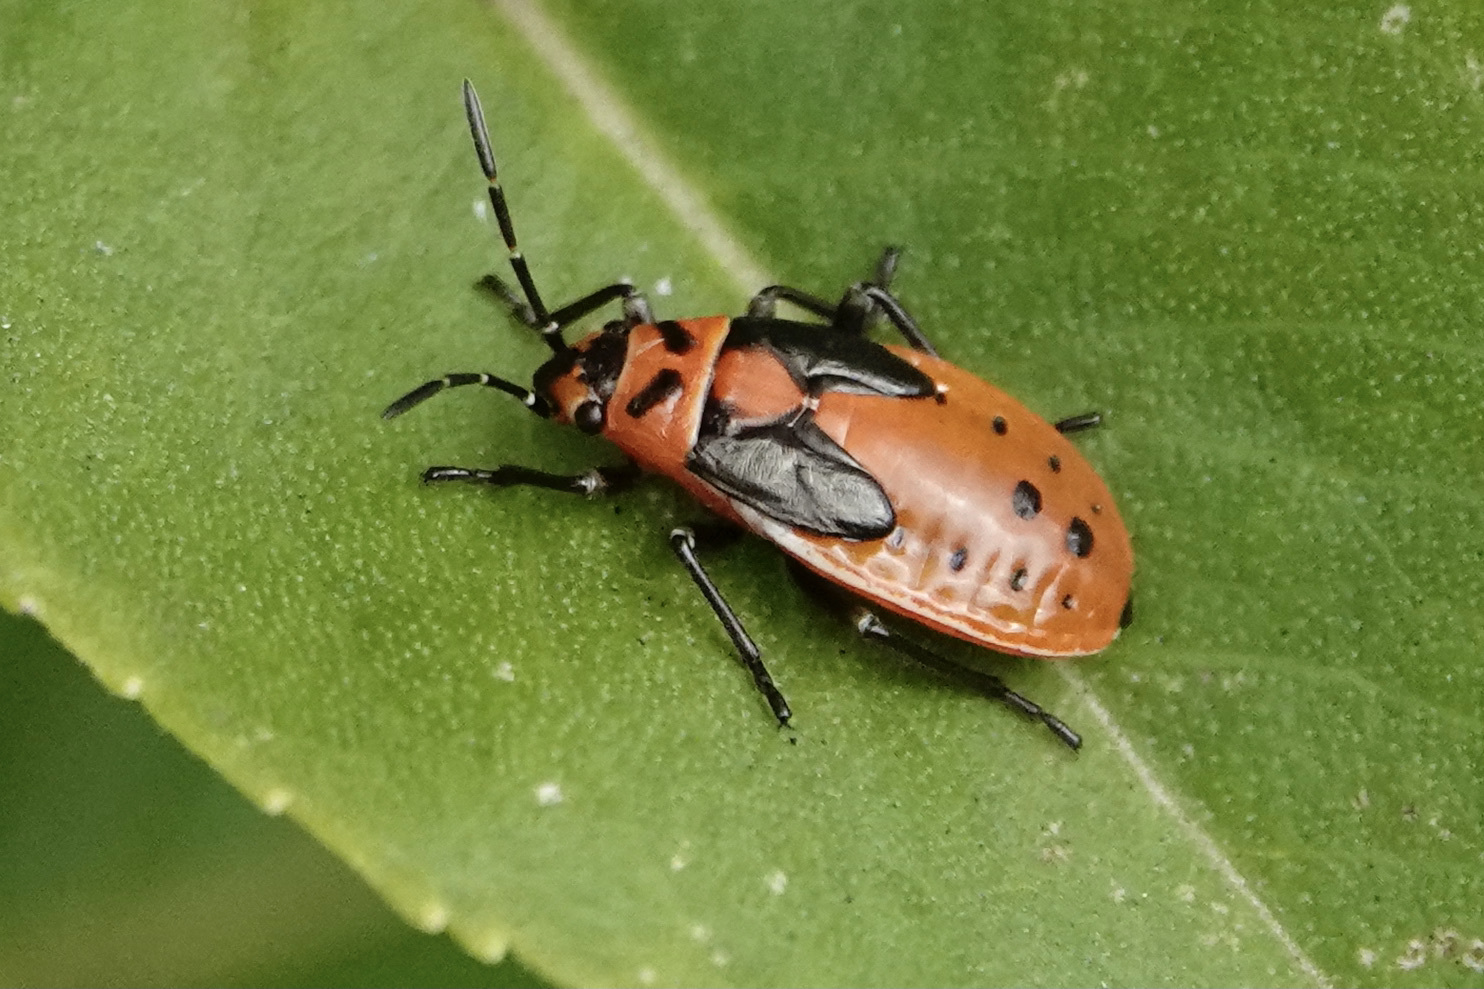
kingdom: Animalia
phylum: Arthropoda
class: Insecta
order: Hemiptera
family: Lygaeidae
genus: Lygaeus
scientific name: Lygaeus kalmii
